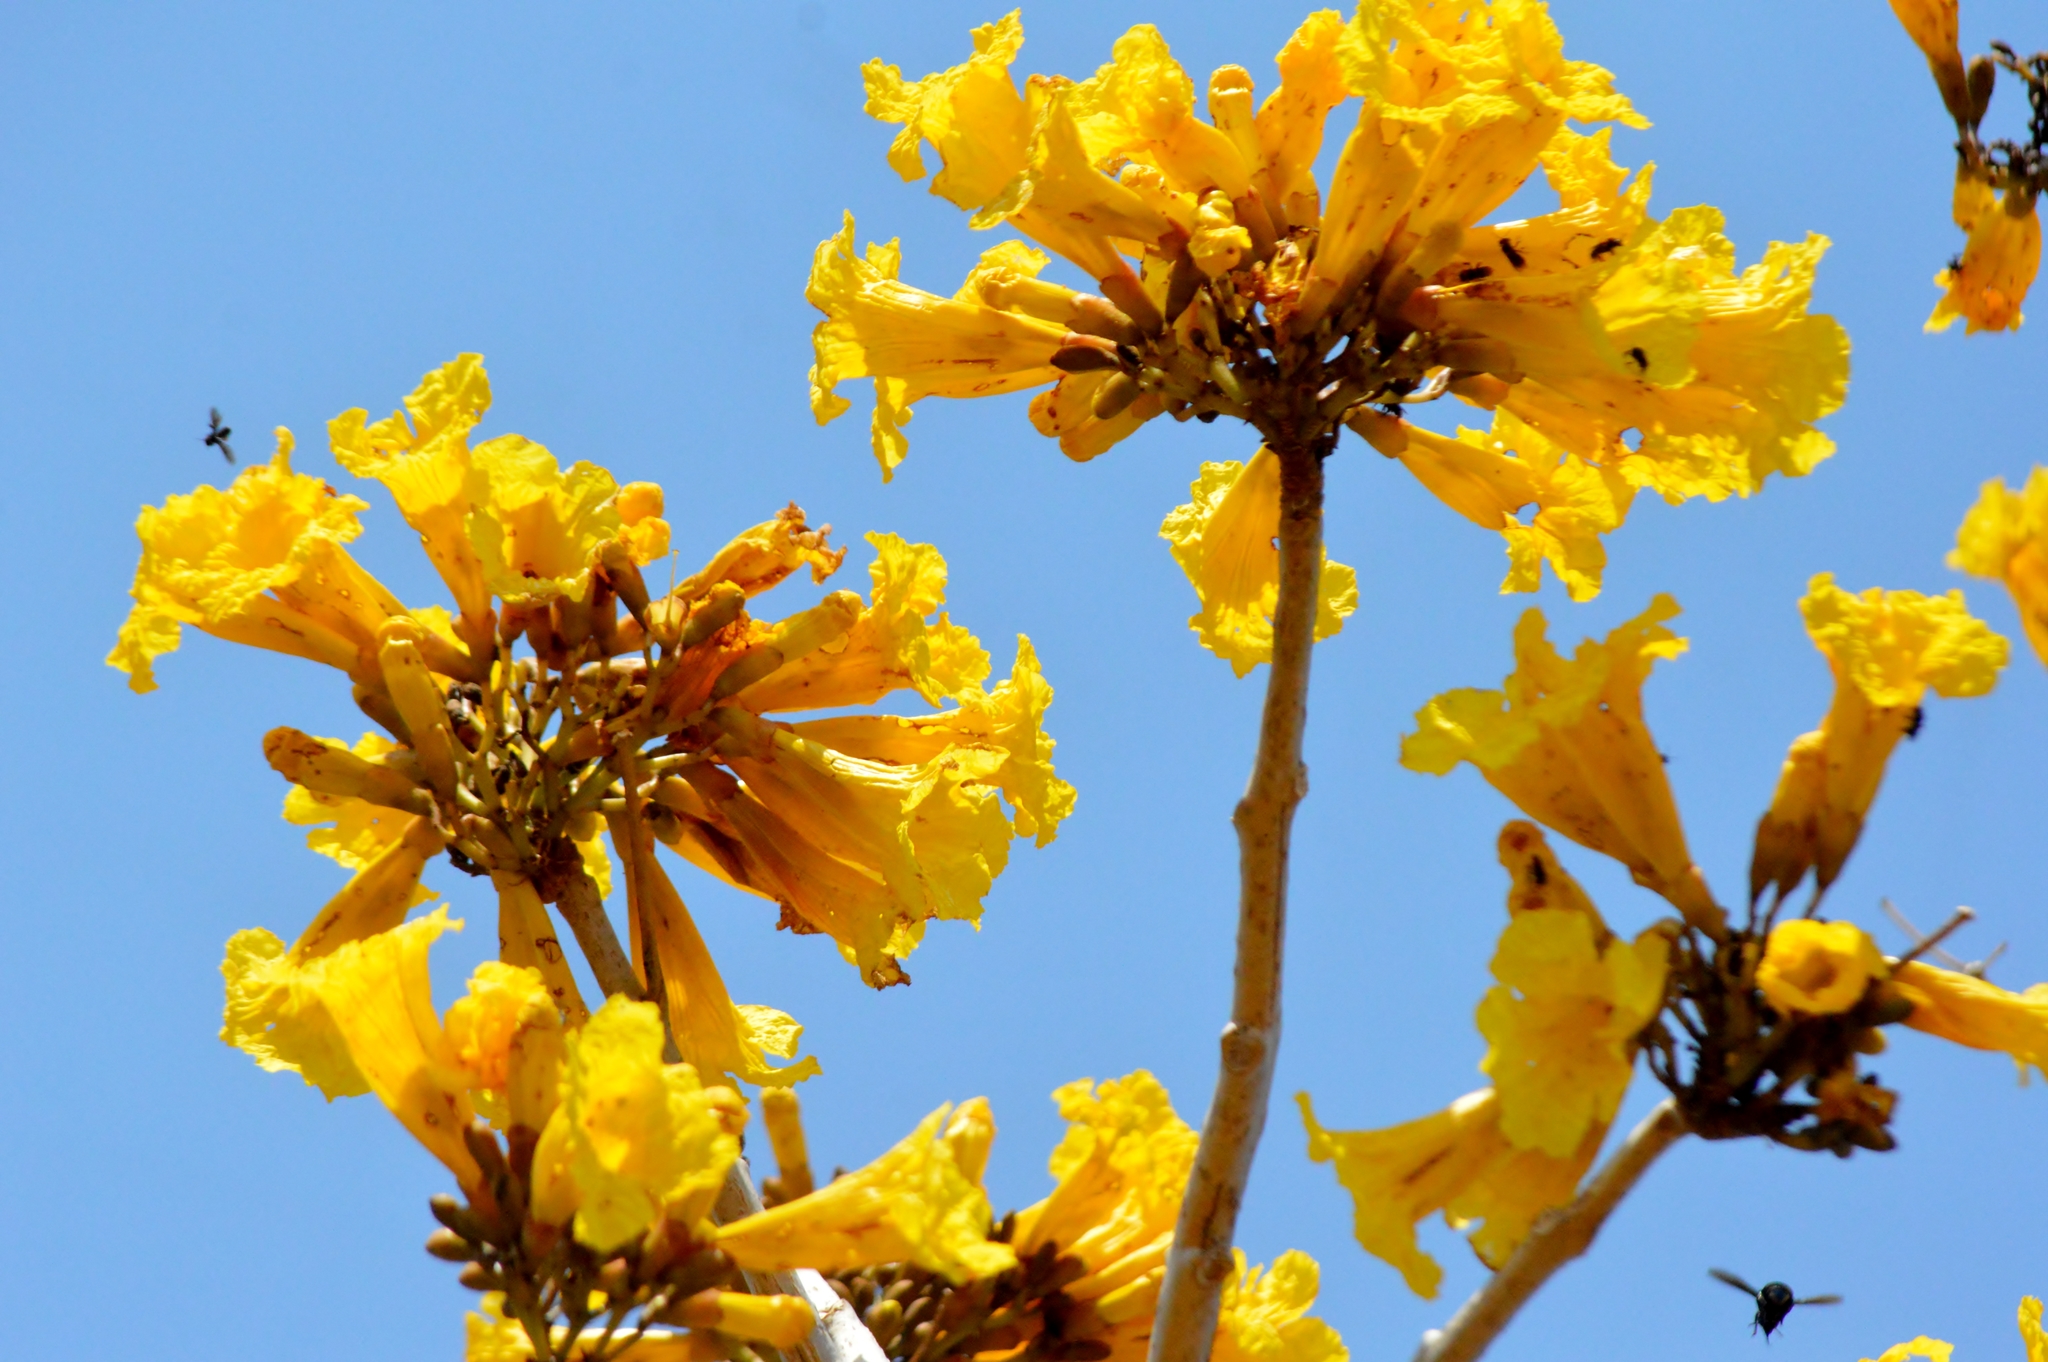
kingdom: Plantae
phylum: Tracheophyta
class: Magnoliopsida
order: Lamiales
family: Bignoniaceae
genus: Tabebuia
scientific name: Tabebuia aurea
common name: Caribbean trumpet-tree
